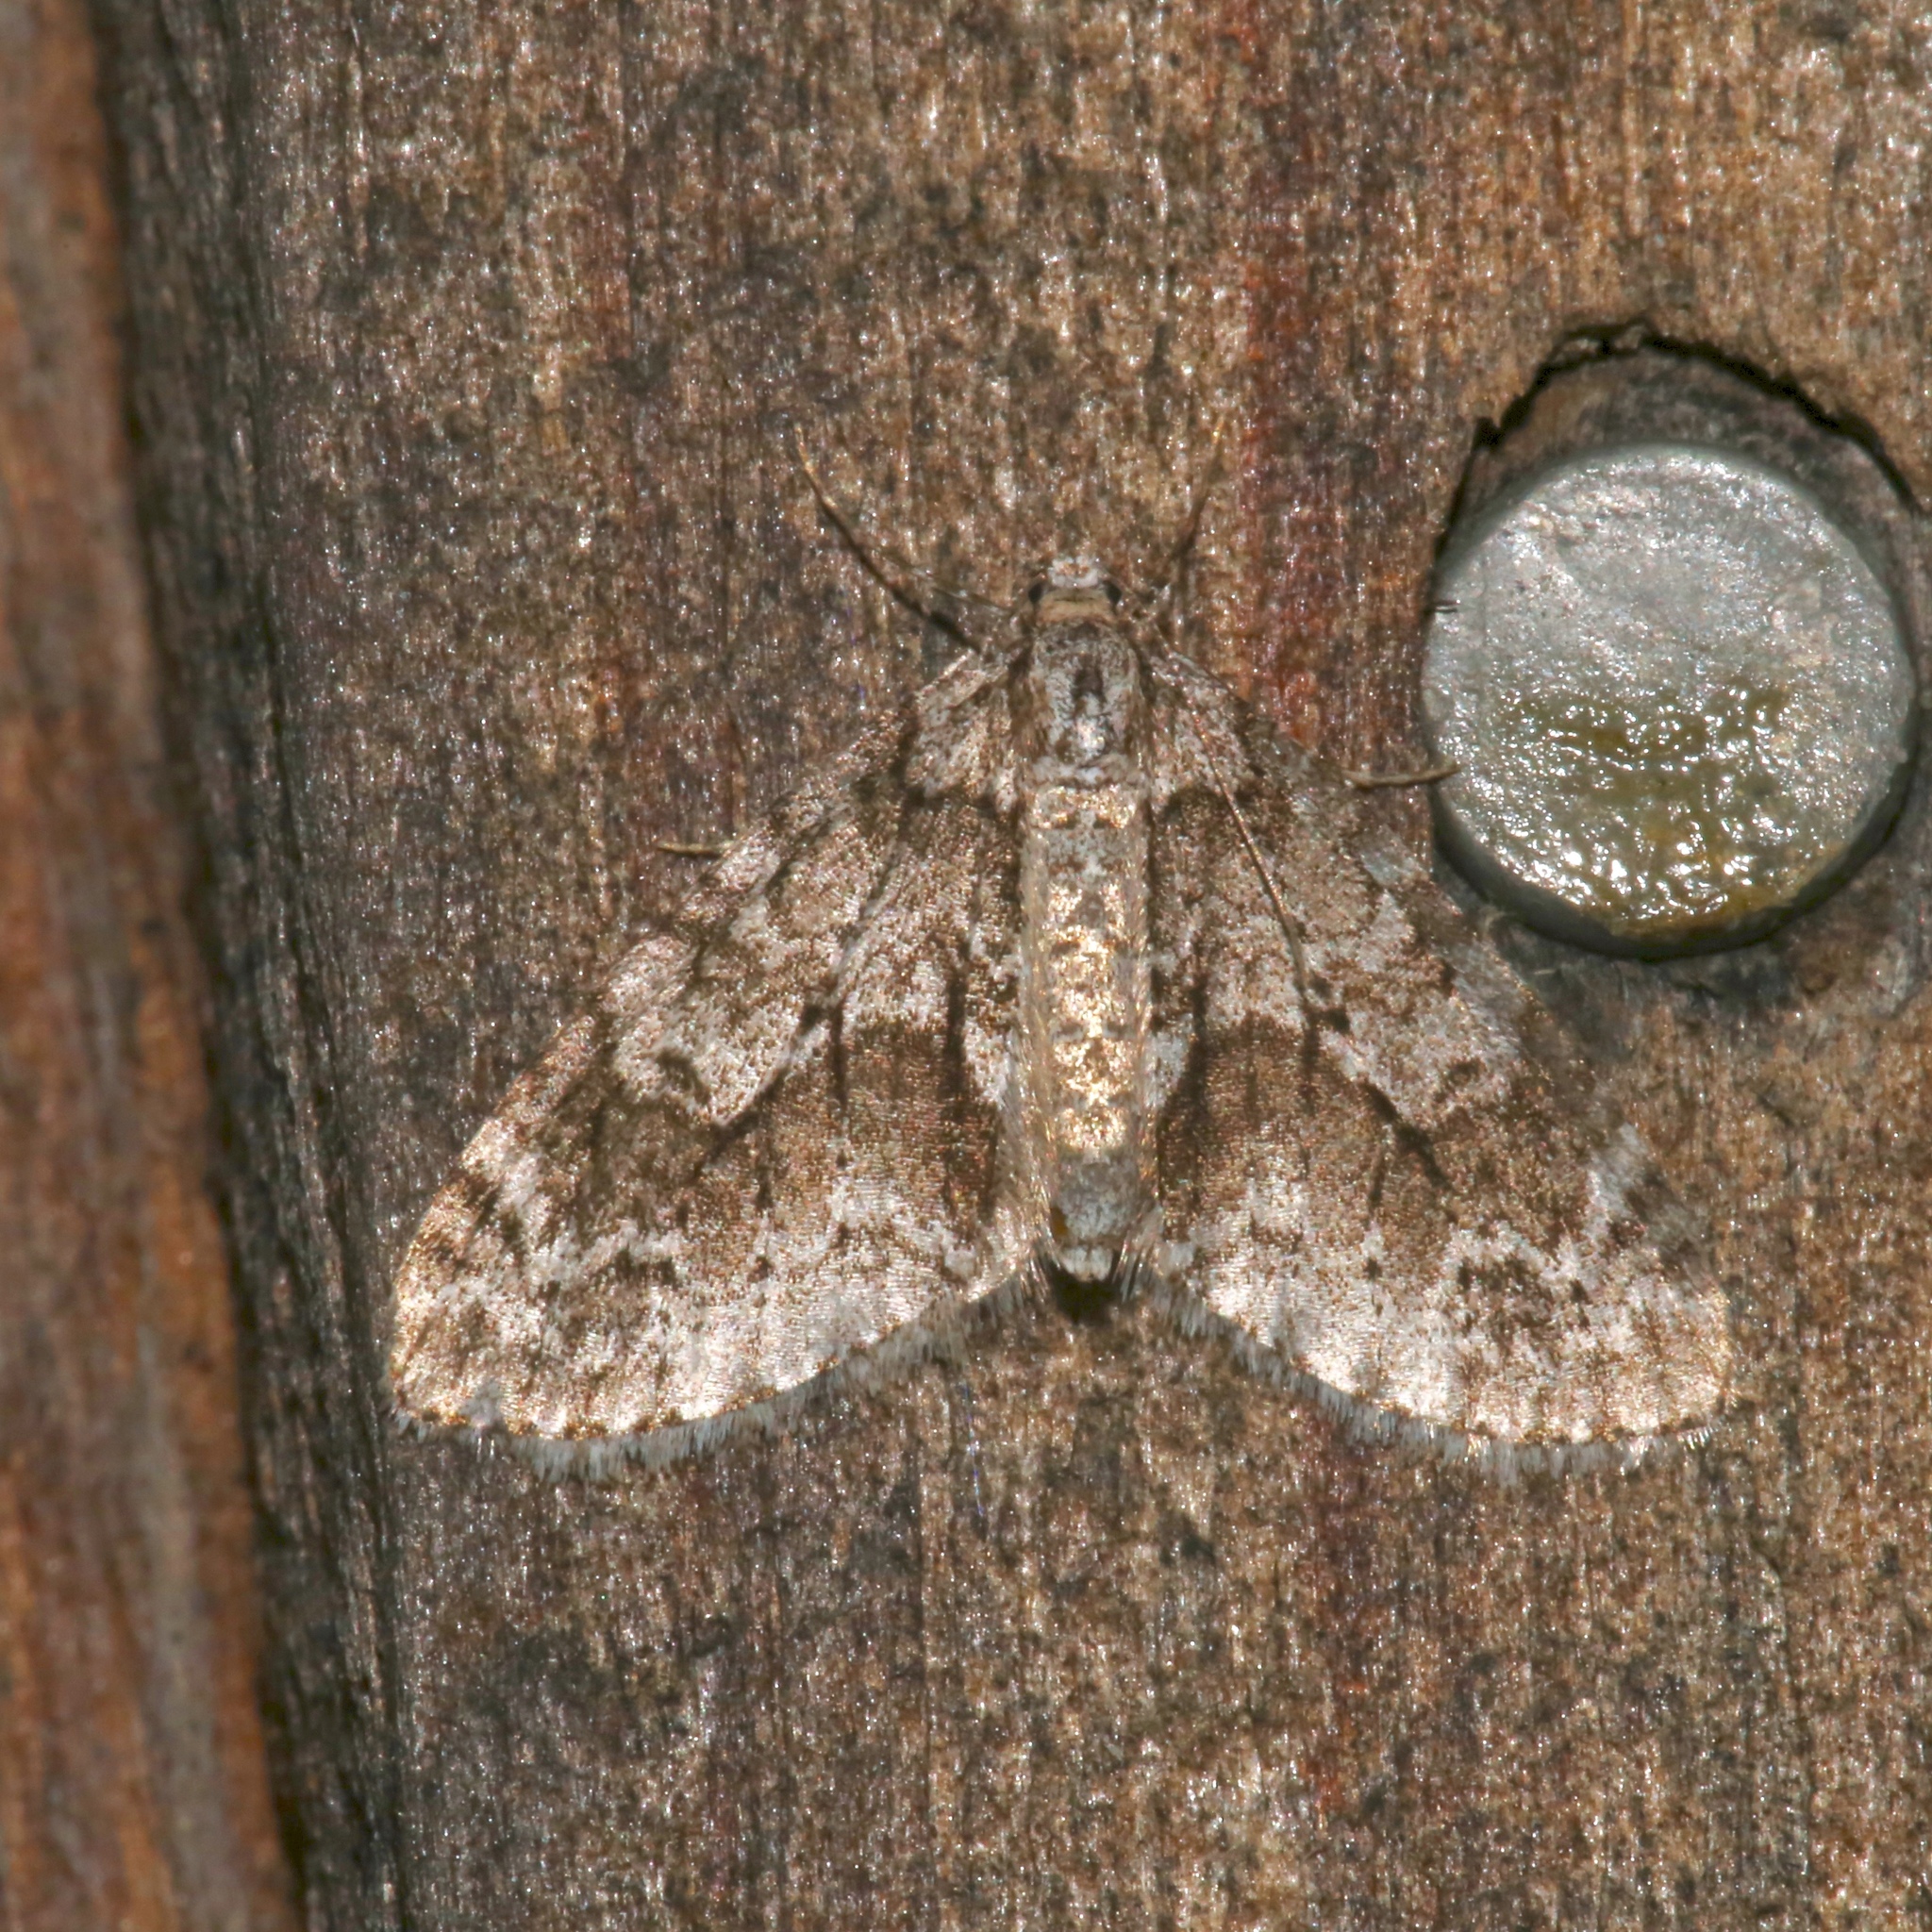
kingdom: Animalia
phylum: Arthropoda
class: Insecta
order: Lepidoptera
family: Geometridae
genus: Cladara
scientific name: Cladara limitaria
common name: Mottled gray carpet
